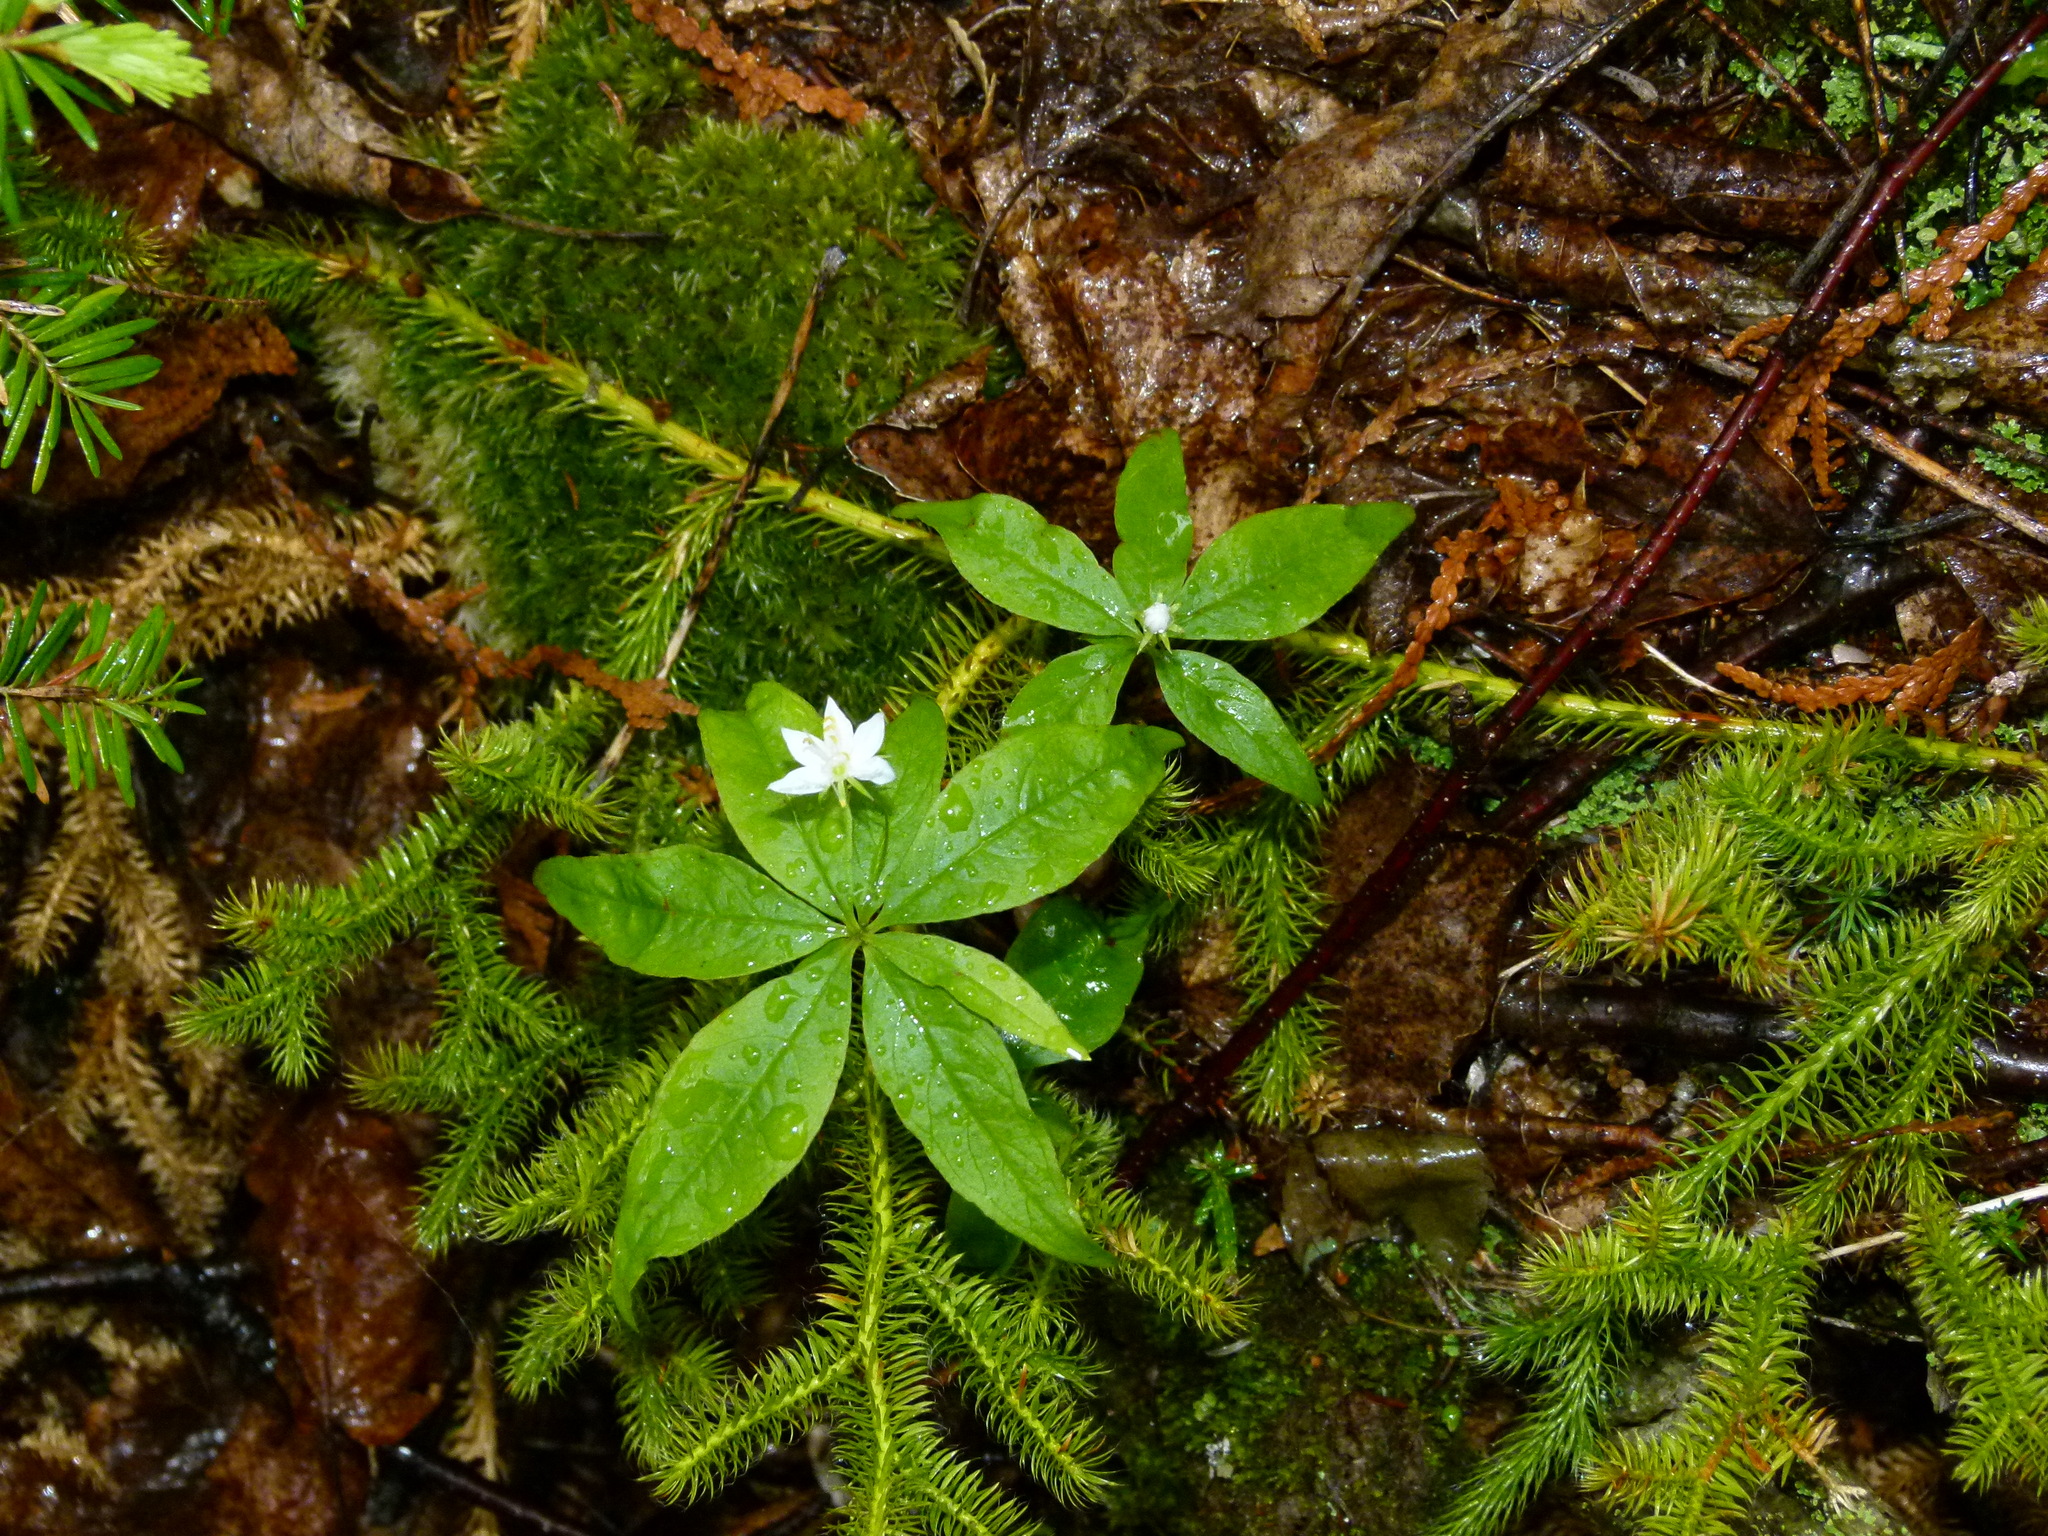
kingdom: Plantae
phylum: Tracheophyta
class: Magnoliopsida
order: Ericales
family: Primulaceae
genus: Lysimachia
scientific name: Lysimachia borealis
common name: American starflower
